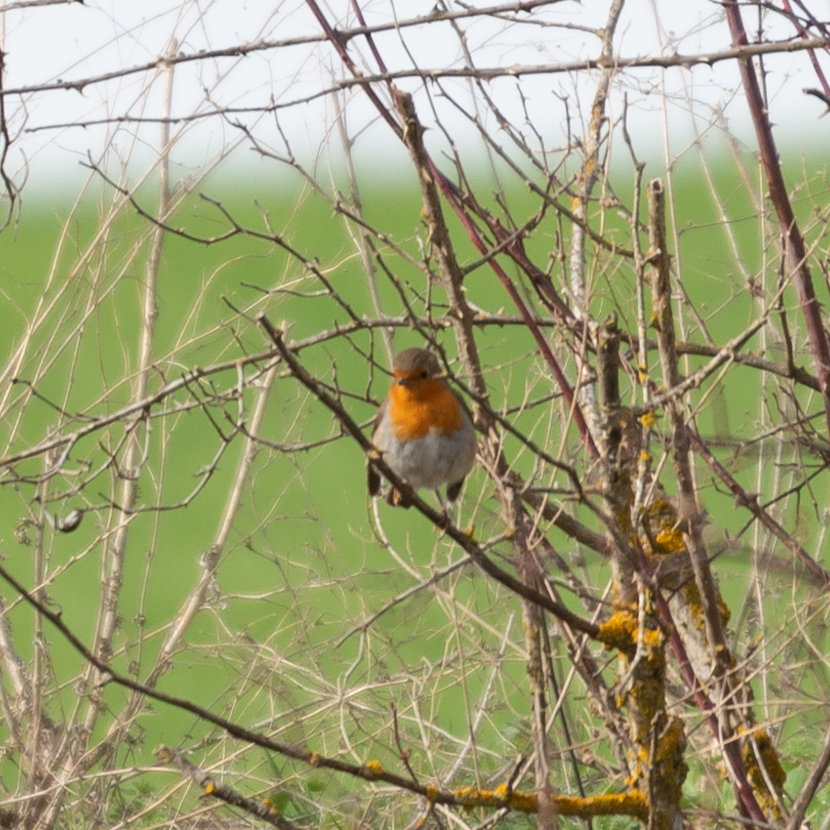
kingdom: Animalia
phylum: Chordata
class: Aves
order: Passeriformes
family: Muscicapidae
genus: Erithacus
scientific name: Erithacus rubecula
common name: European robin
